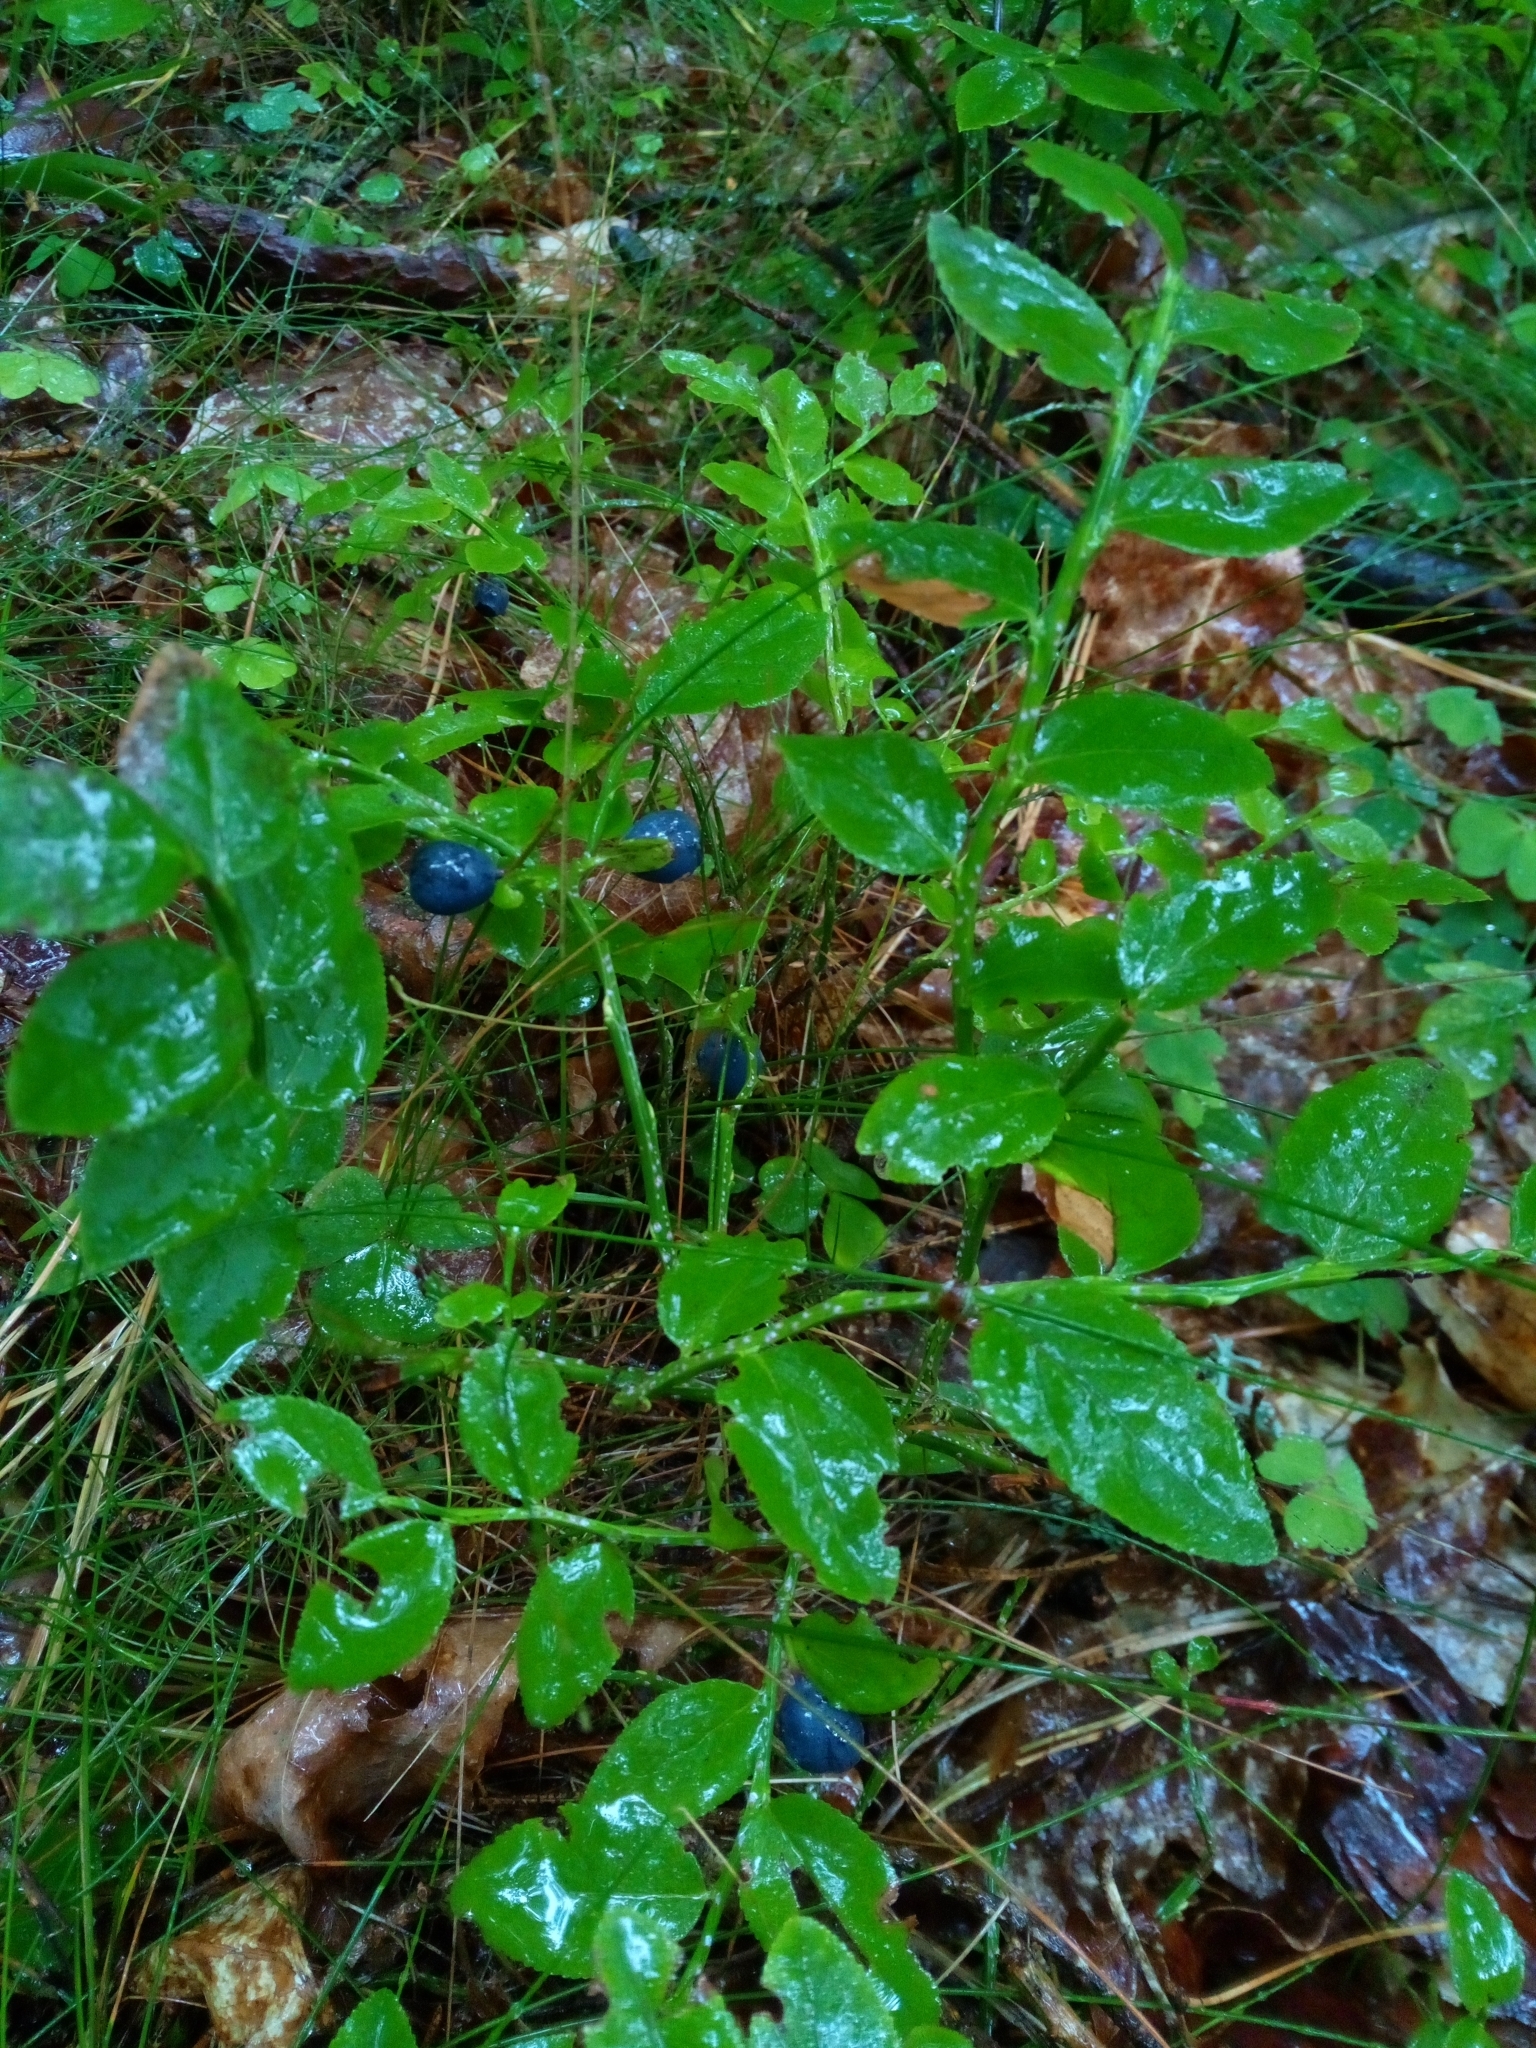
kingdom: Plantae
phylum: Tracheophyta
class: Magnoliopsida
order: Ericales
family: Ericaceae
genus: Vaccinium
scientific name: Vaccinium myrtillus
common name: Bilberry
